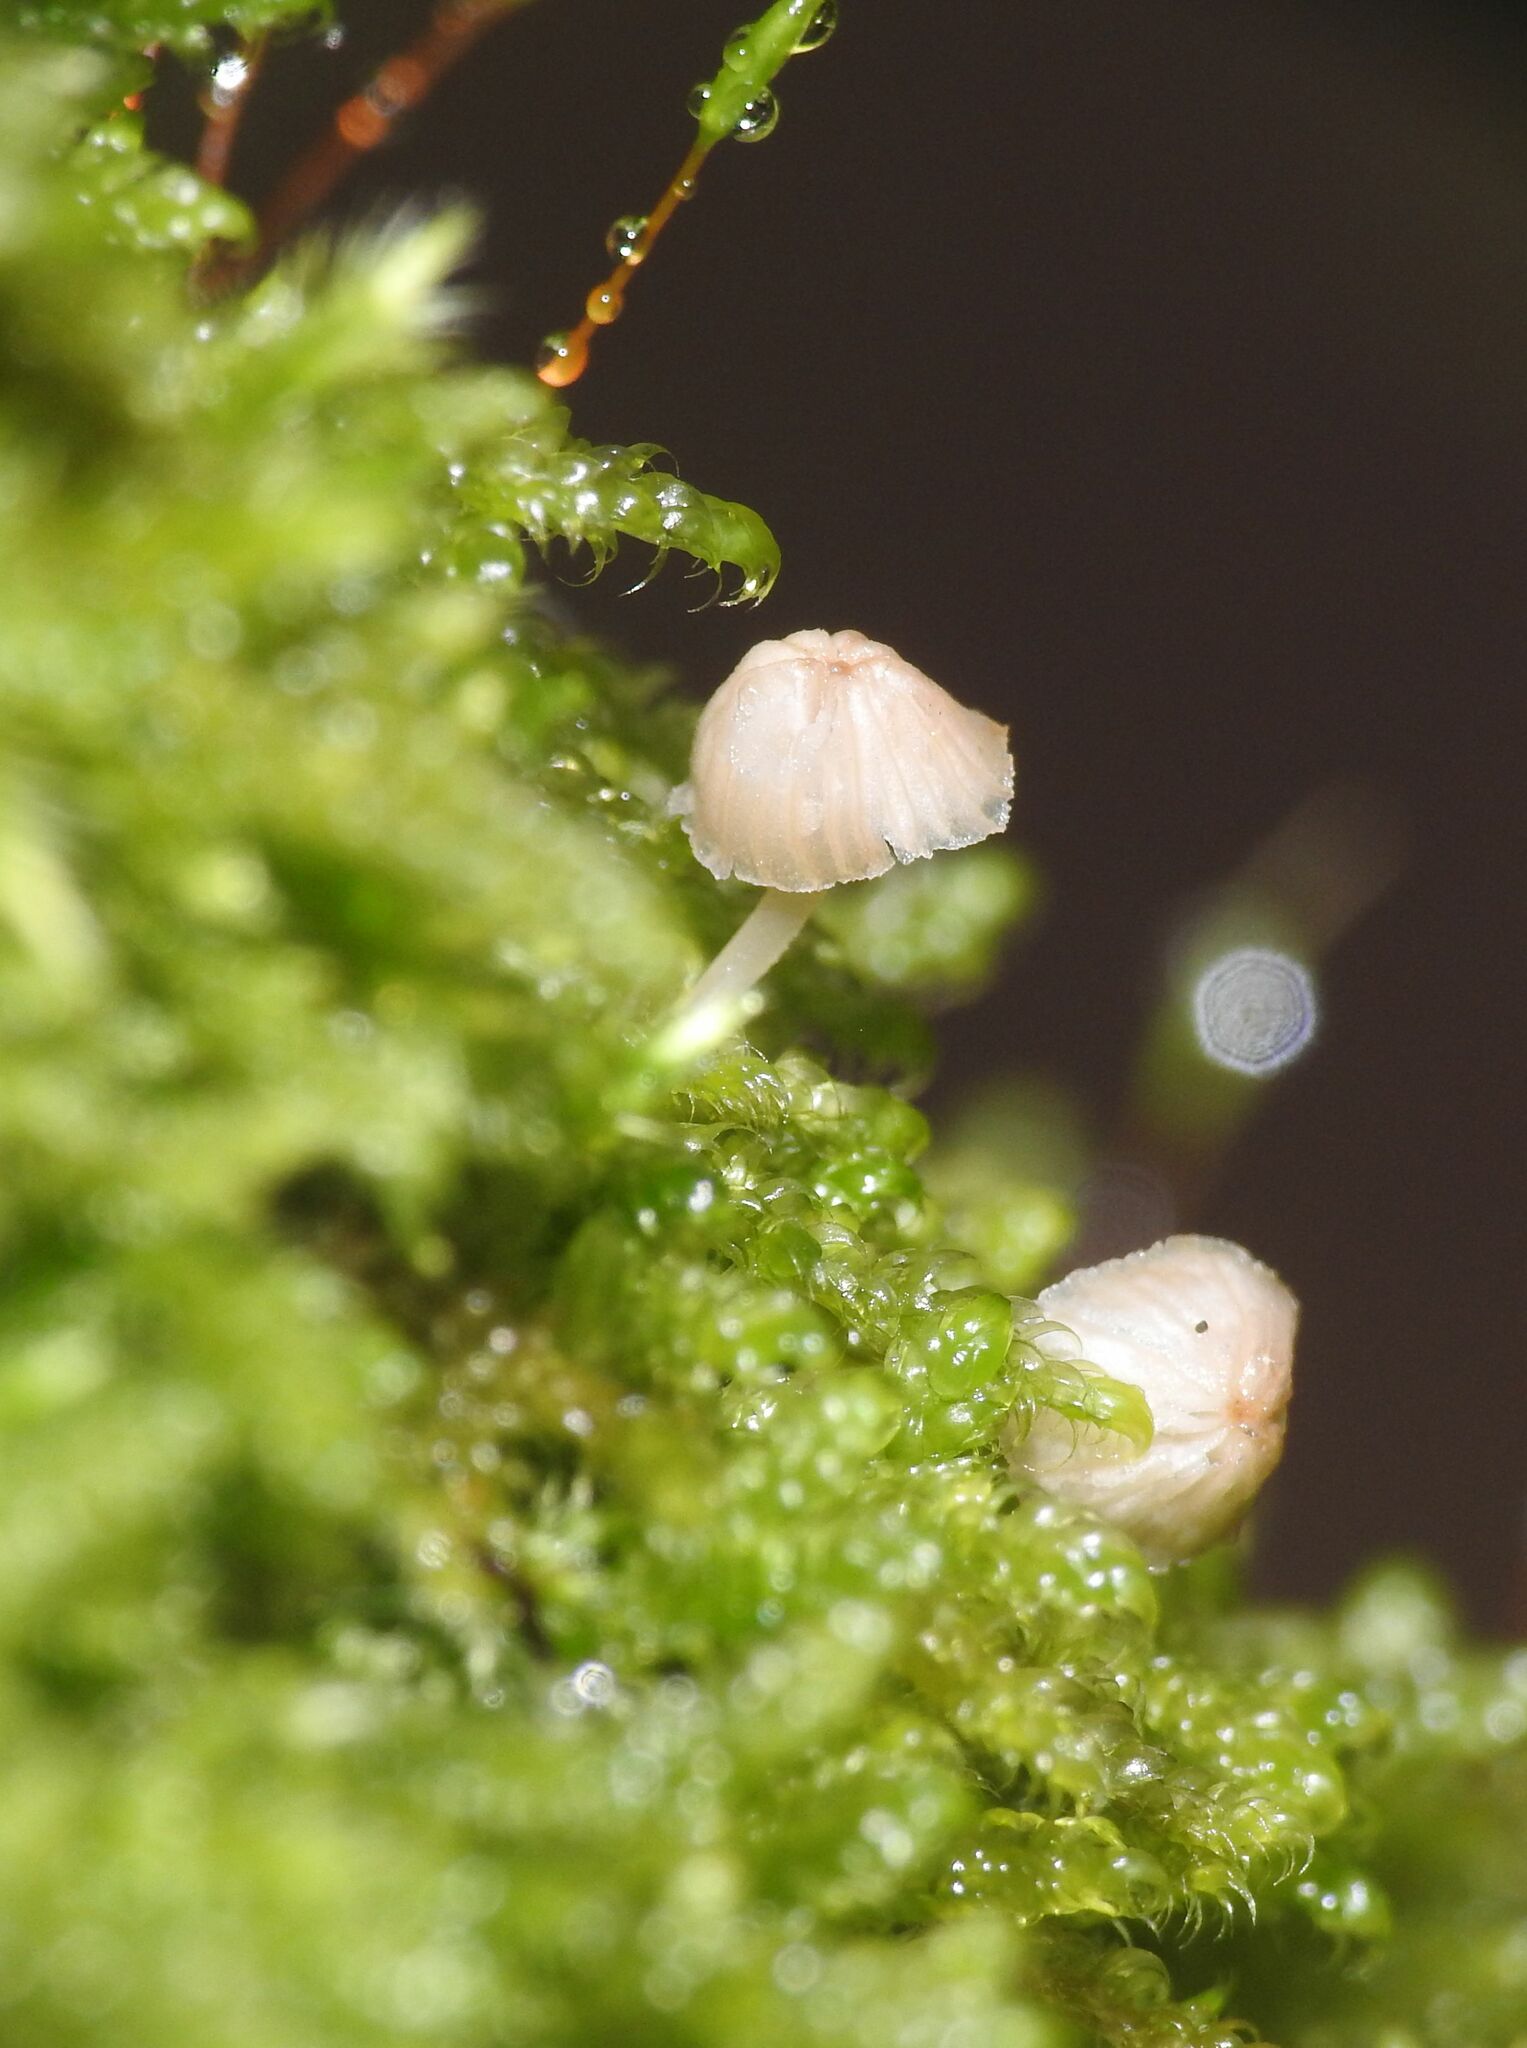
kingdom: Fungi
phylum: Basidiomycota
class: Agaricomycetes
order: Agaricales
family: Mycenaceae
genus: Mycena
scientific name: Mycena meliigena
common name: Mauve bonnet
